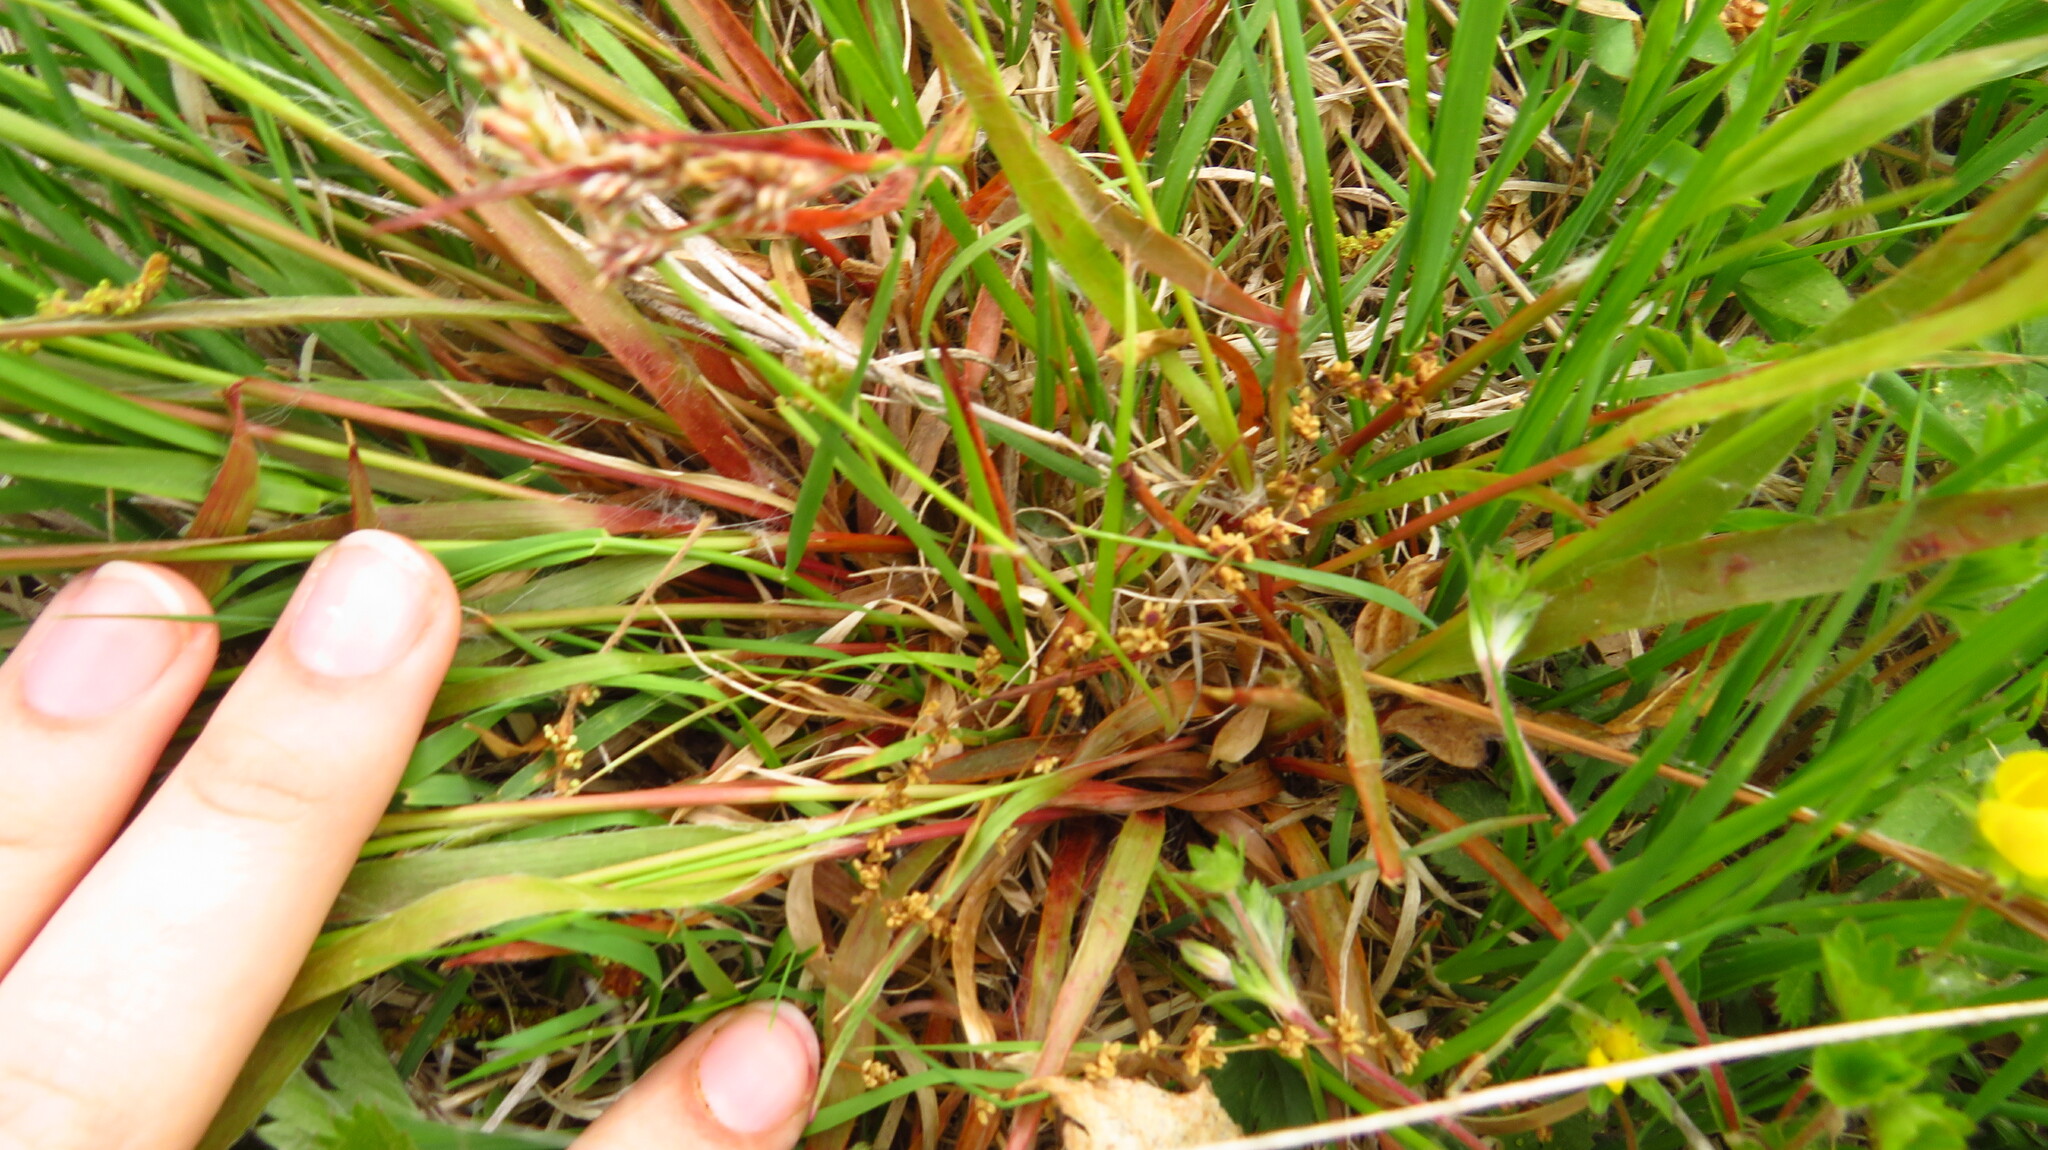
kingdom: Plantae
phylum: Tracheophyta
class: Liliopsida
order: Poales
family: Juncaceae
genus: Luzula
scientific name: Luzula multiflora
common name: Heath wood-rush
